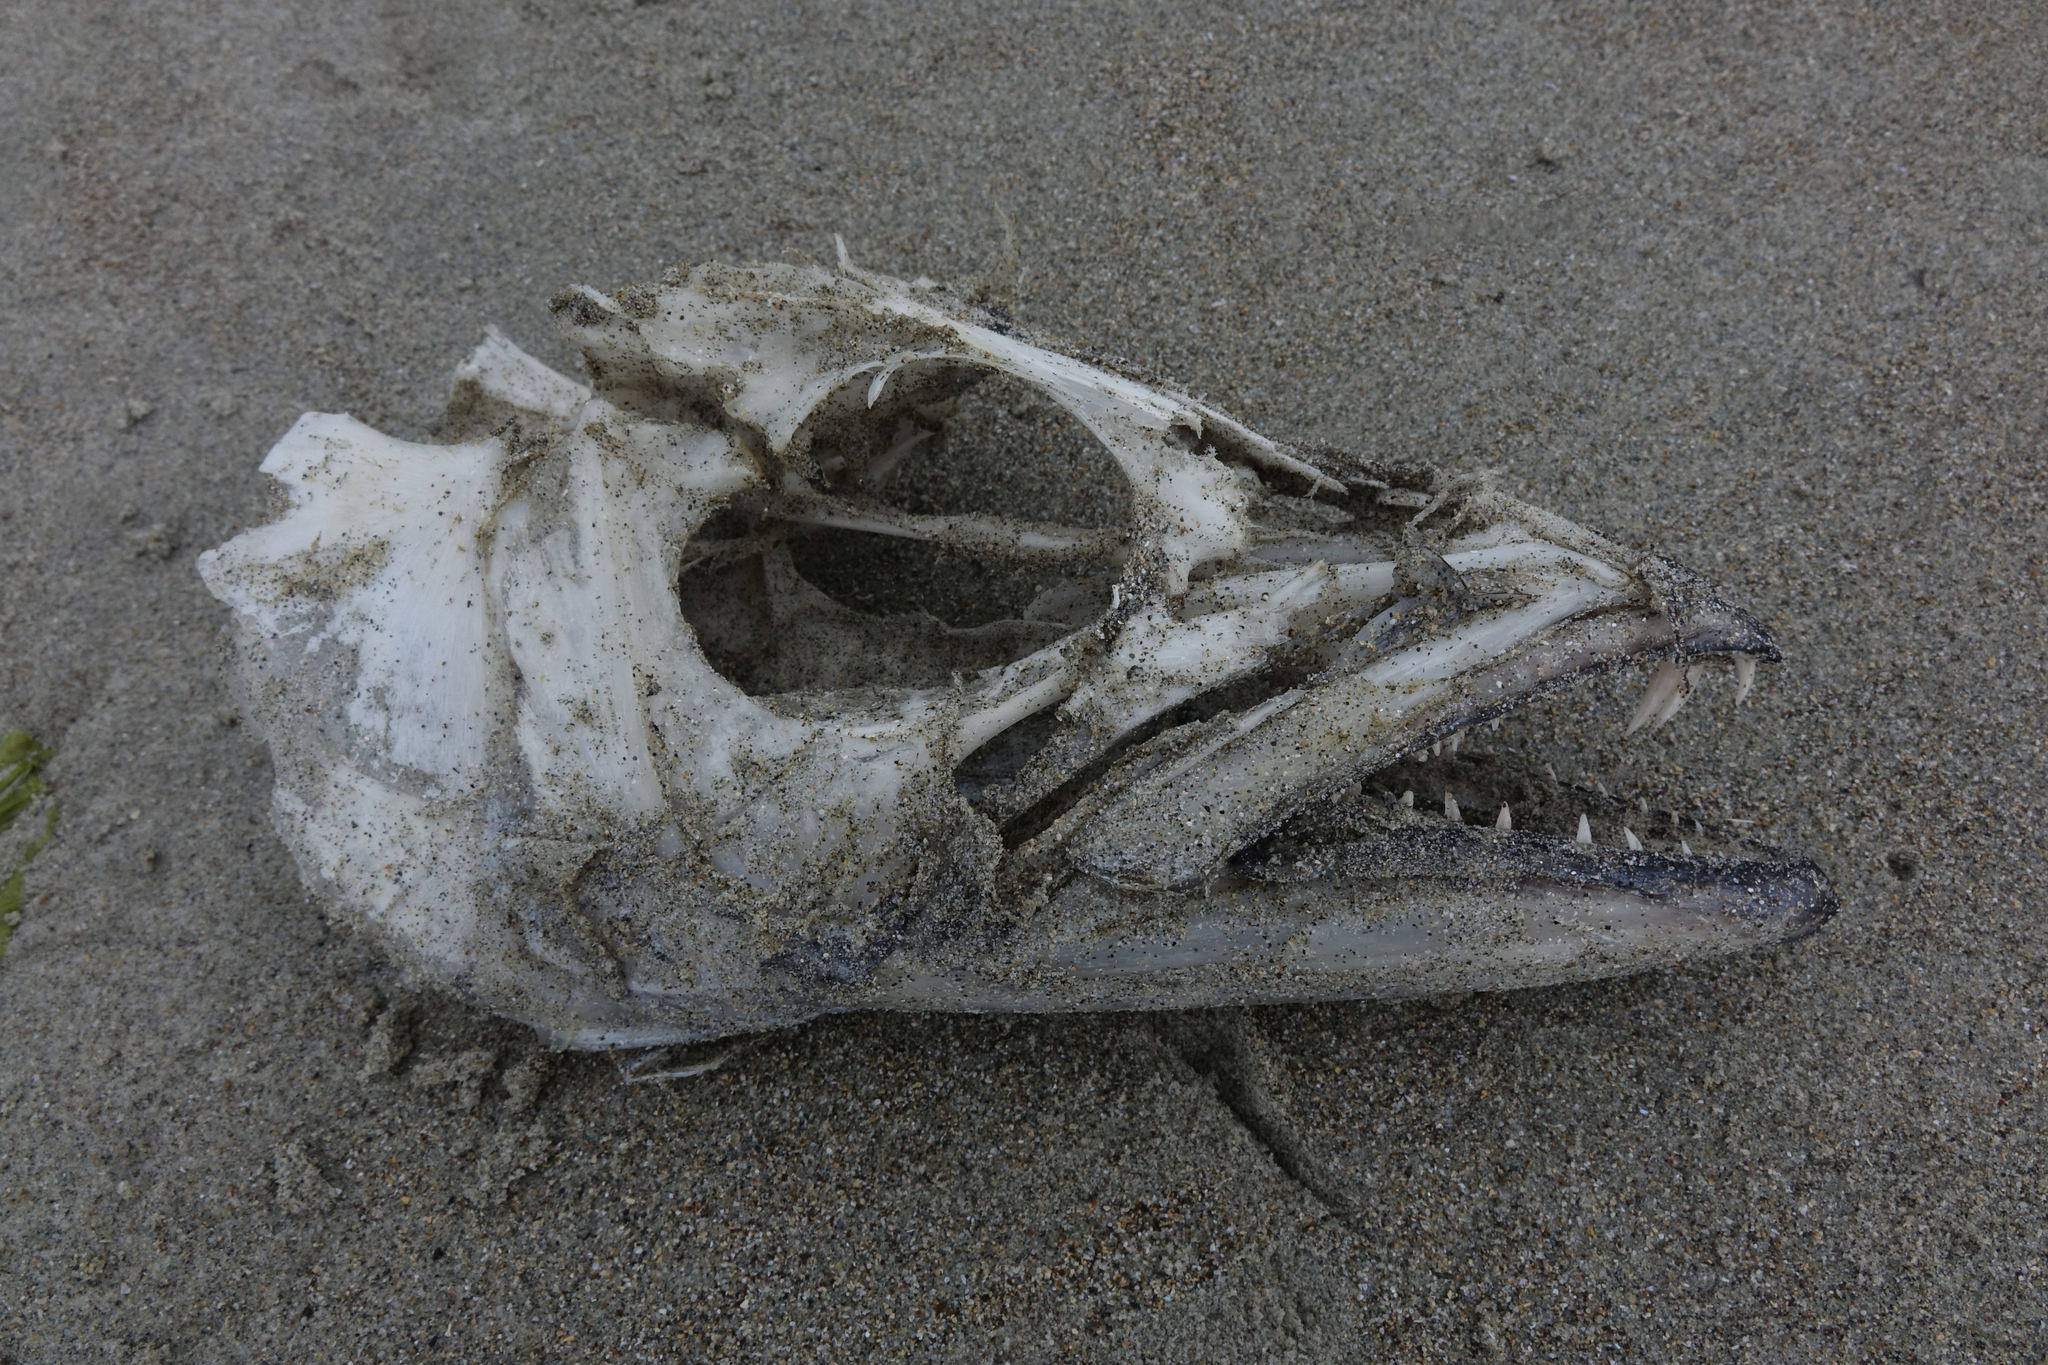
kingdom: Animalia
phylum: Chordata
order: Perciformes
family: Trichiuridae
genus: Lepidopus
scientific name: Lepidopus caudatus
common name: Silver scabbardfish
